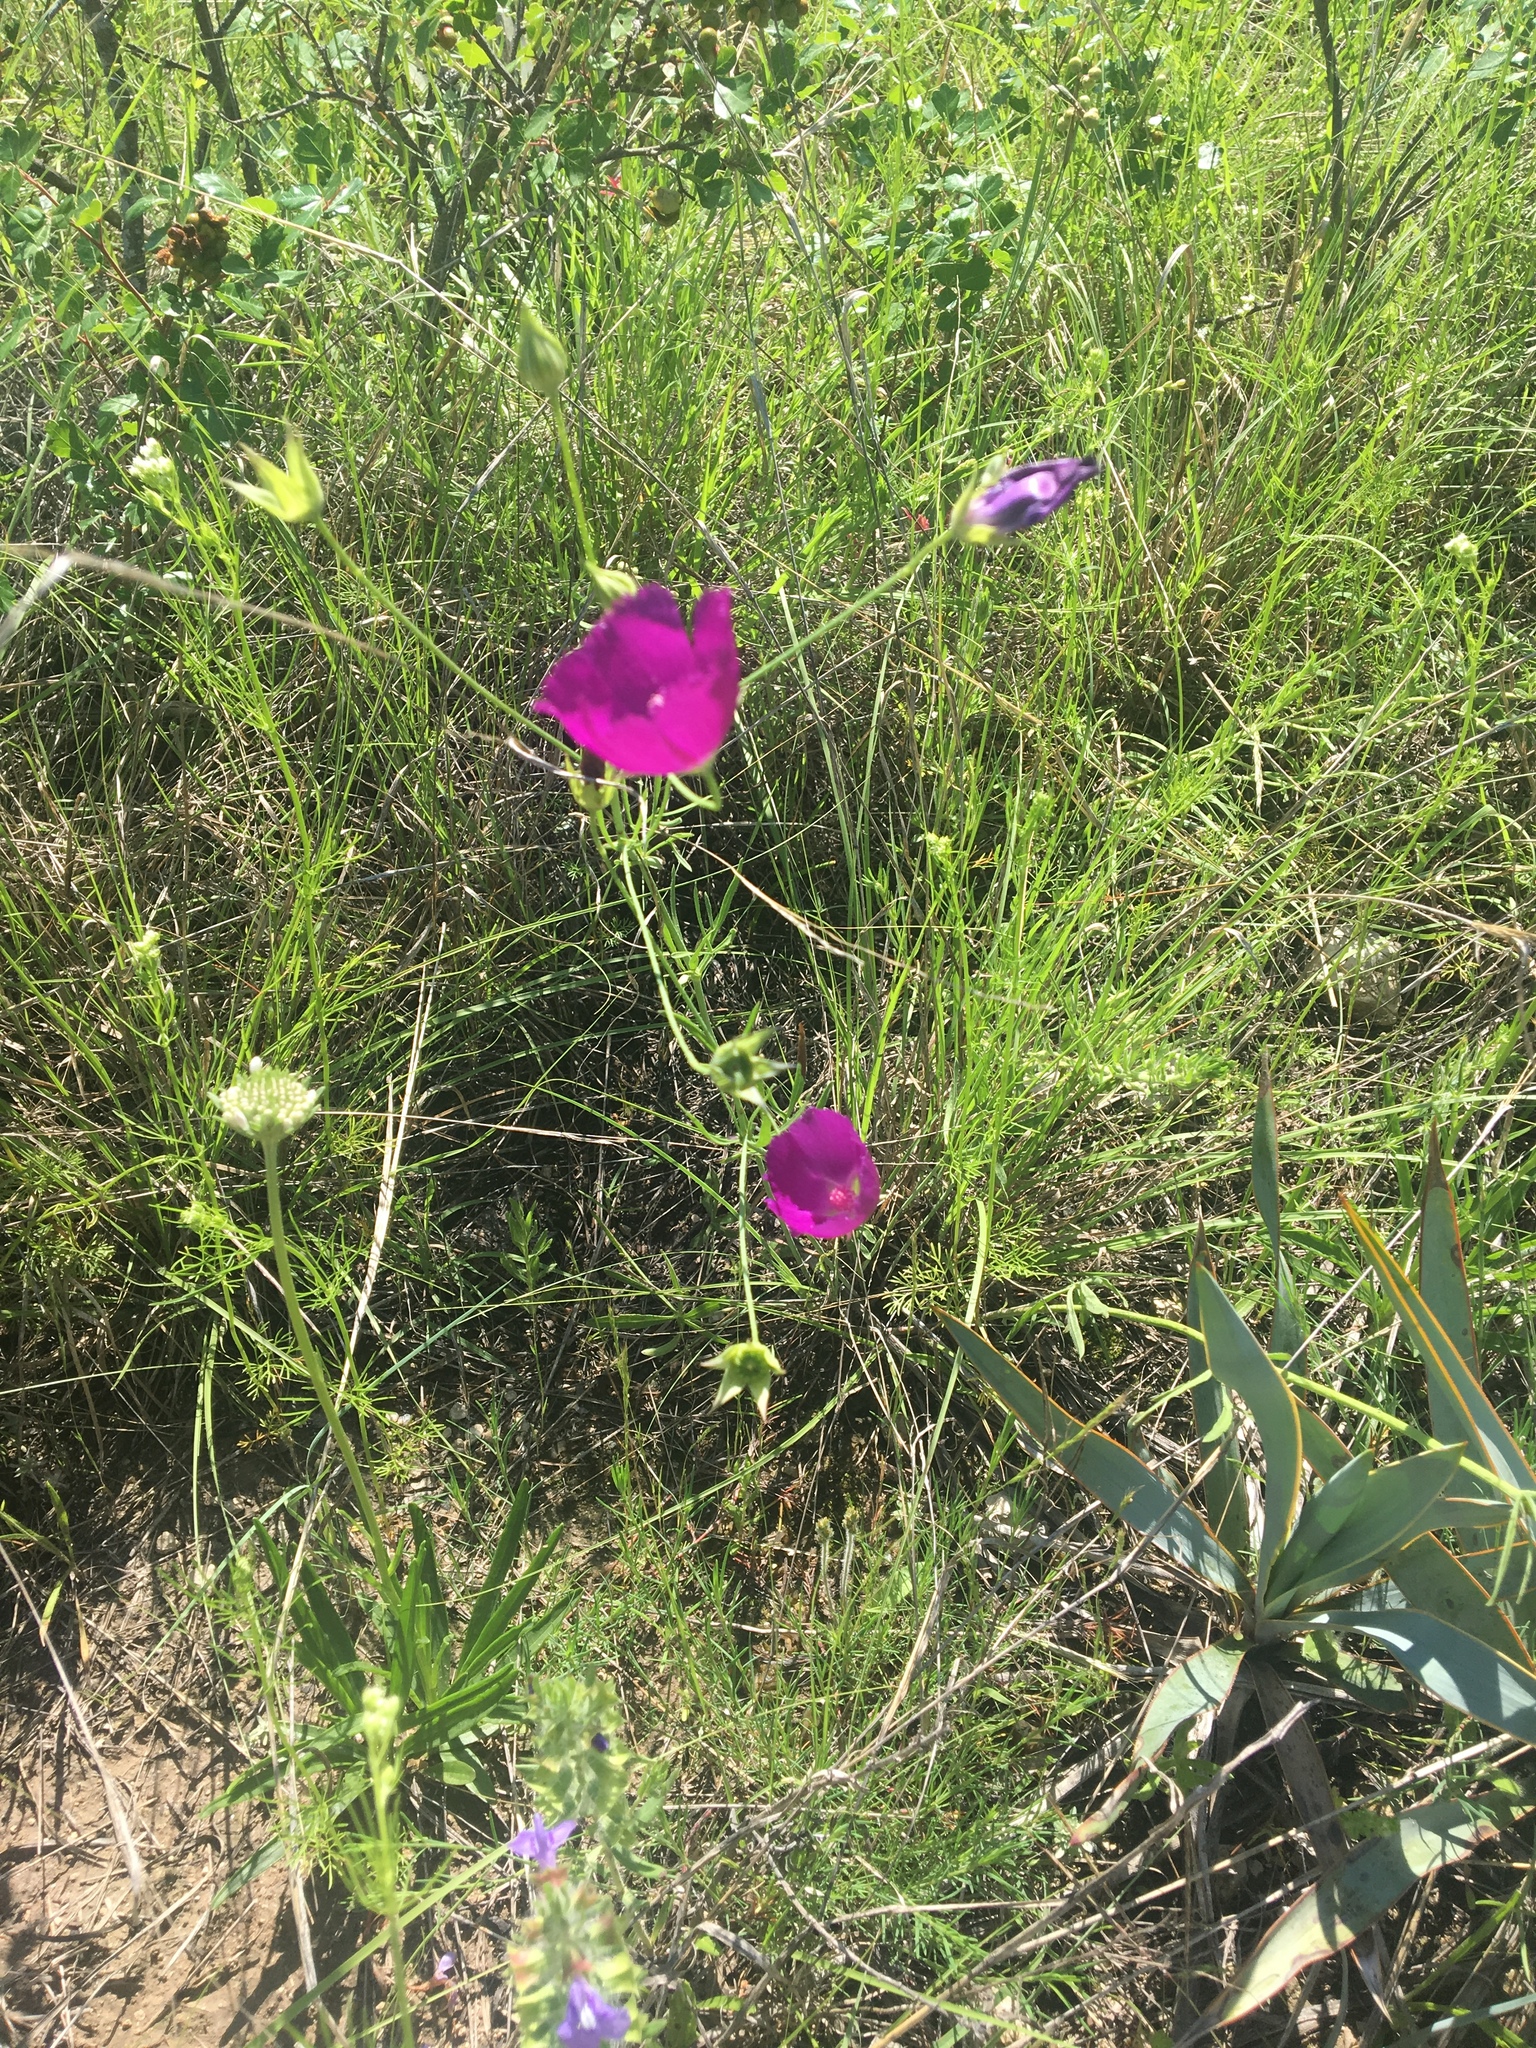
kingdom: Plantae
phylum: Tracheophyta
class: Magnoliopsida
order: Malvales
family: Malvaceae
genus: Callirhoe
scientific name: Callirhoe pedata
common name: Finger poppy-mallow
